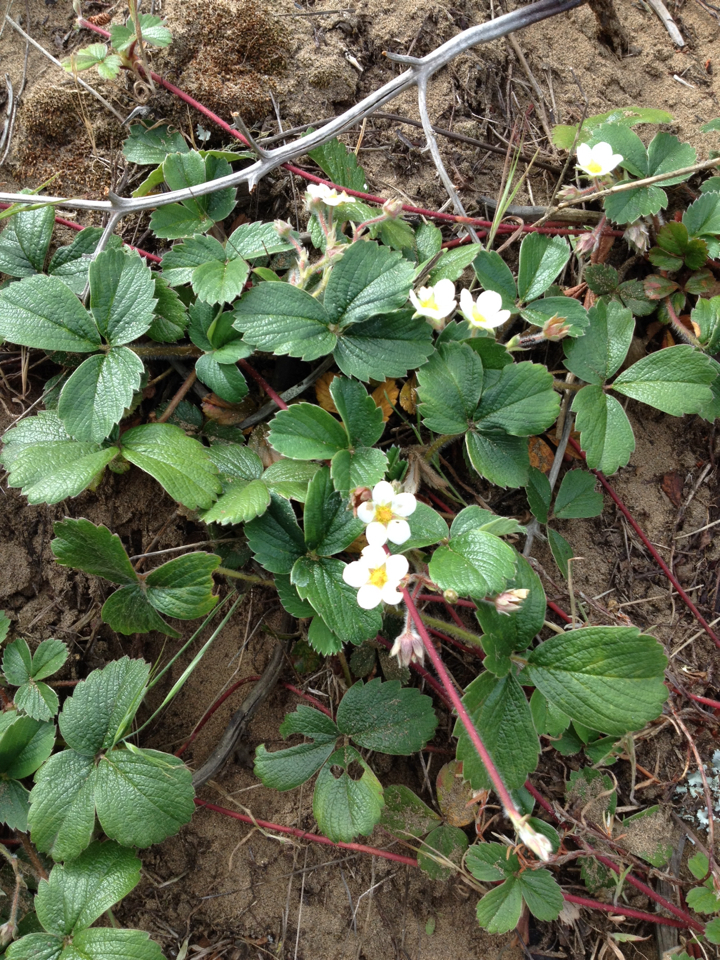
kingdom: Plantae
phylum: Tracheophyta
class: Magnoliopsida
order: Rosales
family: Rosaceae
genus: Fragaria
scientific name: Fragaria chiloensis
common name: Beach strawberry
